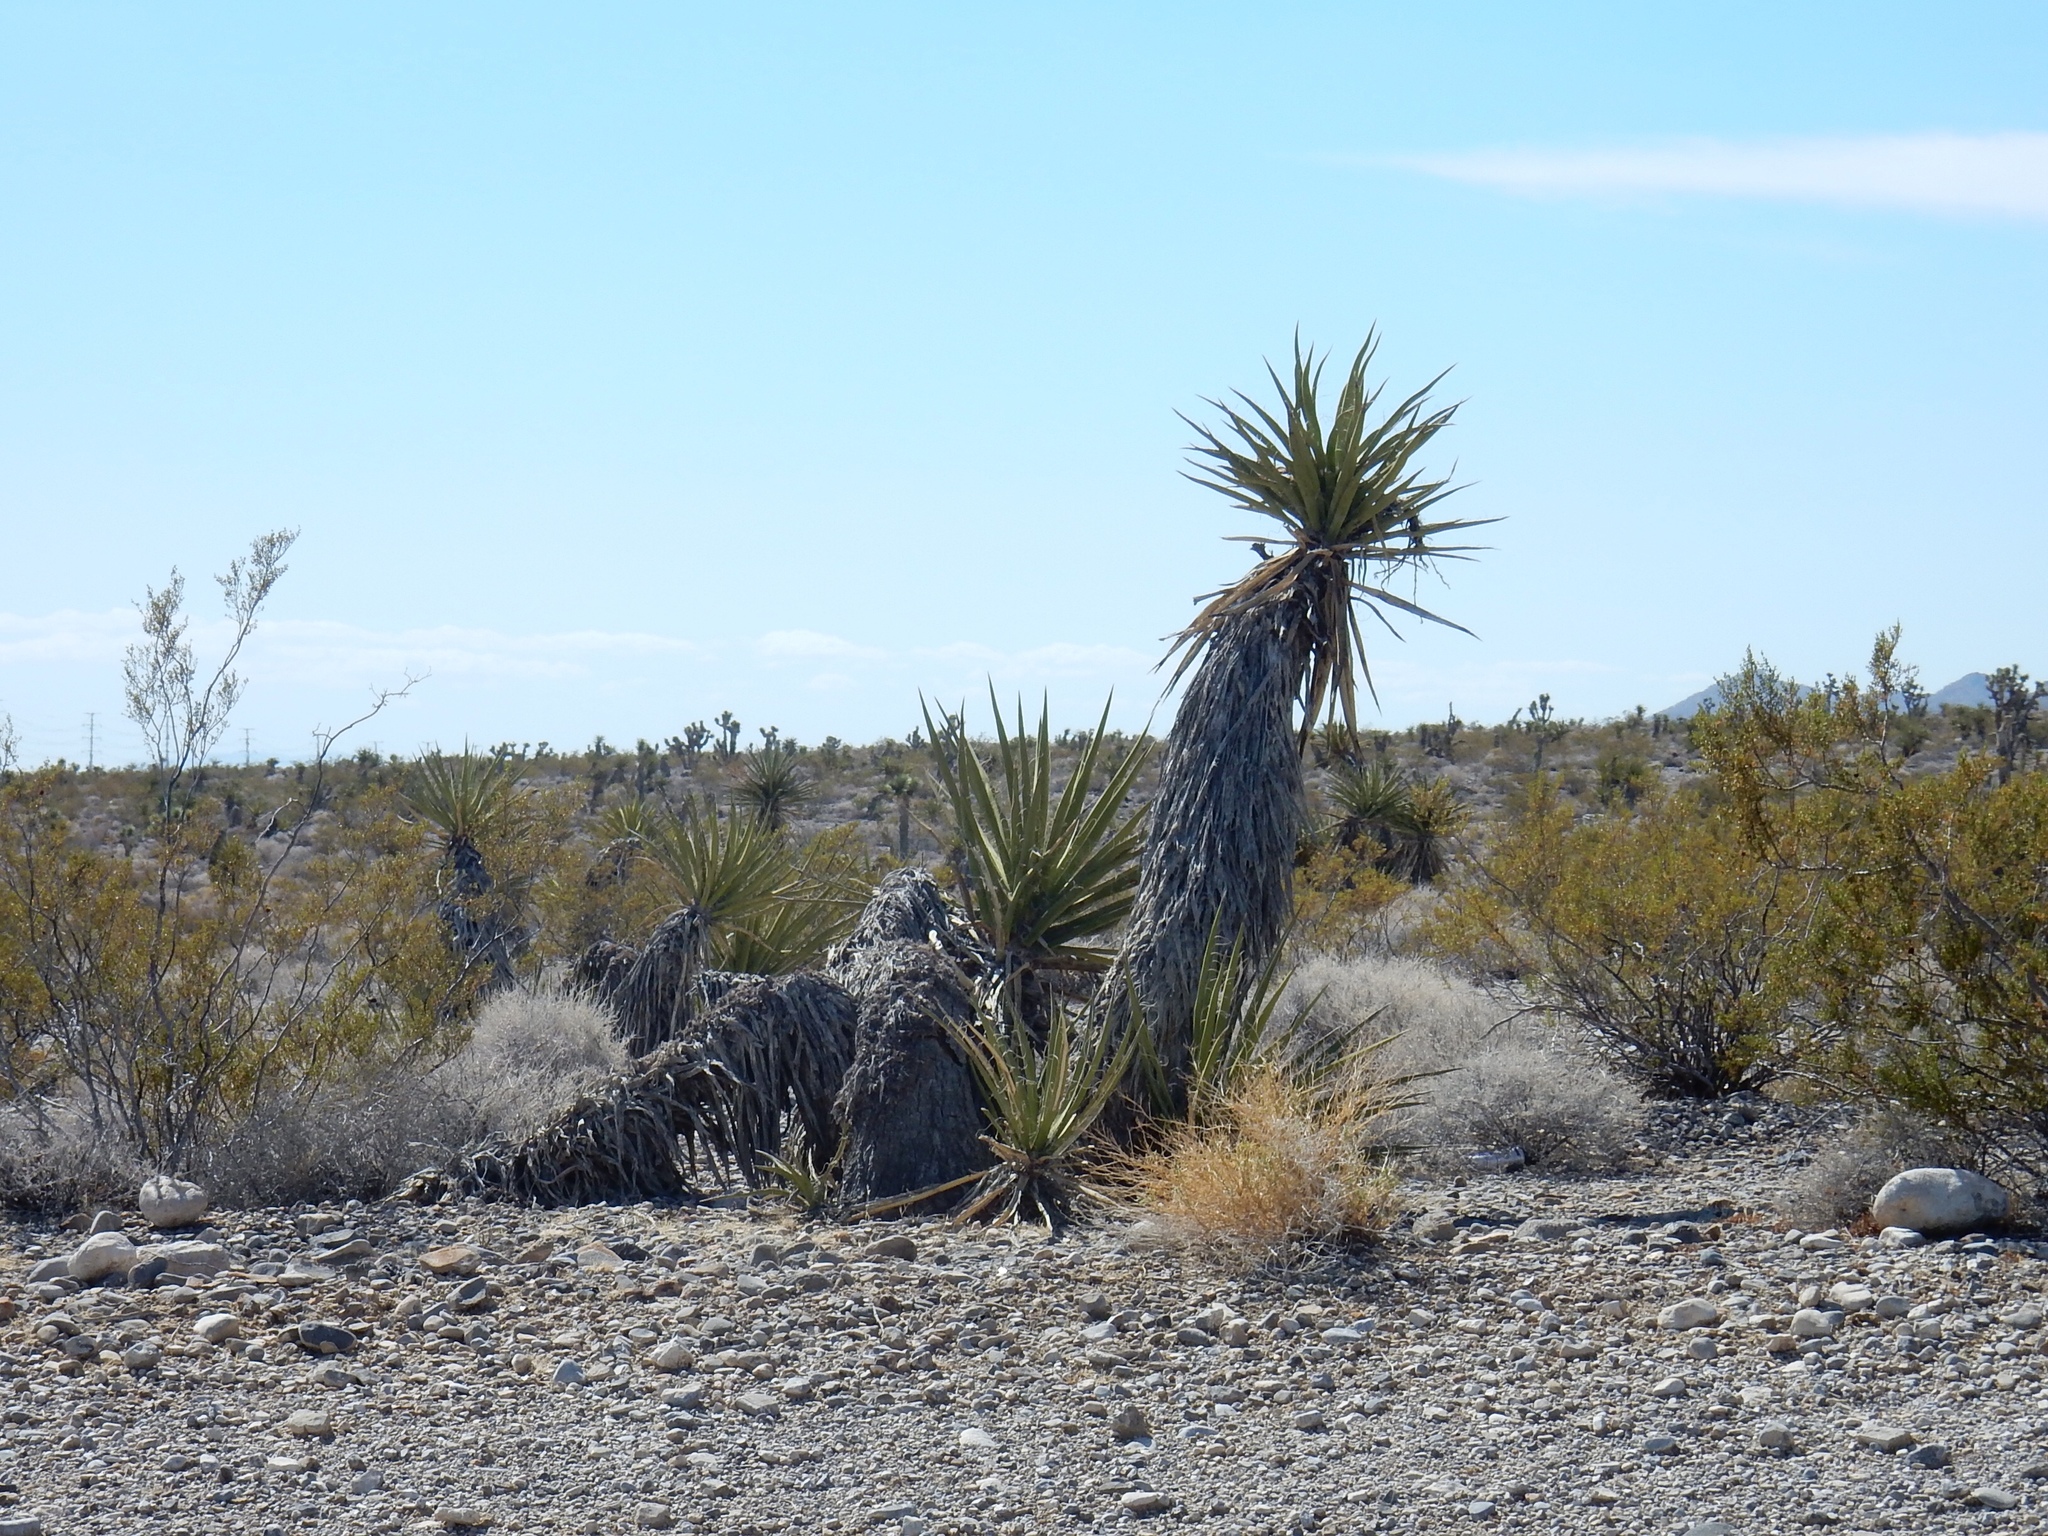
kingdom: Plantae
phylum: Tracheophyta
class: Liliopsida
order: Asparagales
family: Asparagaceae
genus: Yucca
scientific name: Yucca schidigera
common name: Mojave yucca
